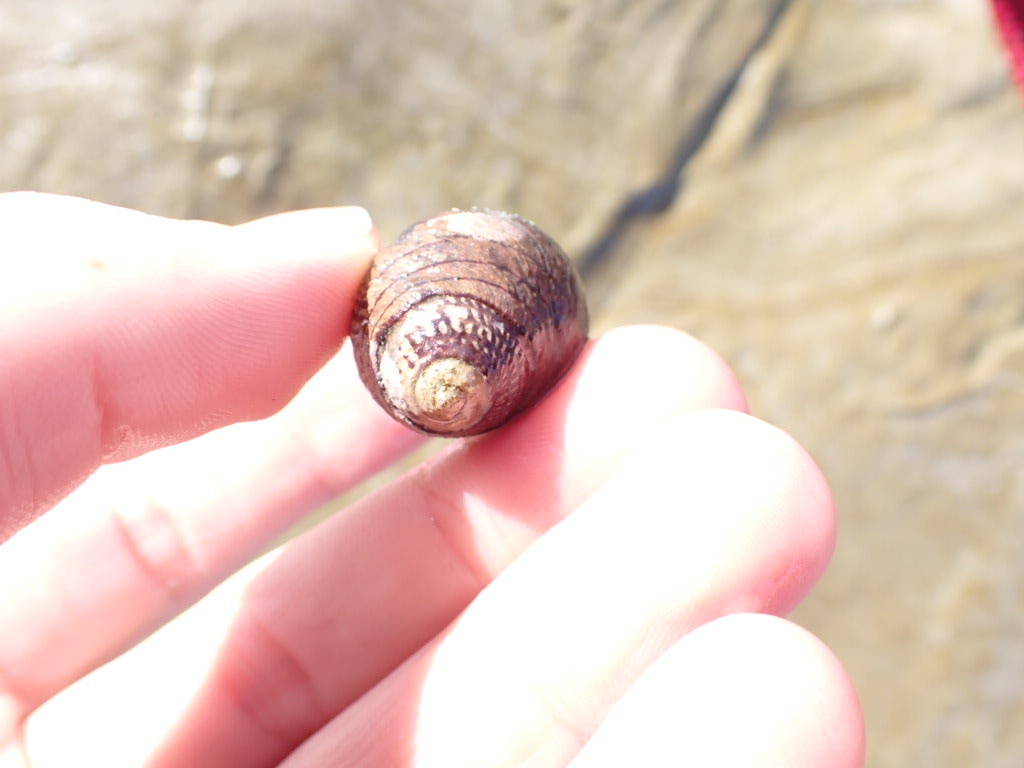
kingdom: Animalia
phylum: Mollusca
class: Gastropoda
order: Trochida
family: Trochidae
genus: Diloma
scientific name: Diloma aethiops
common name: Scorched monodont
